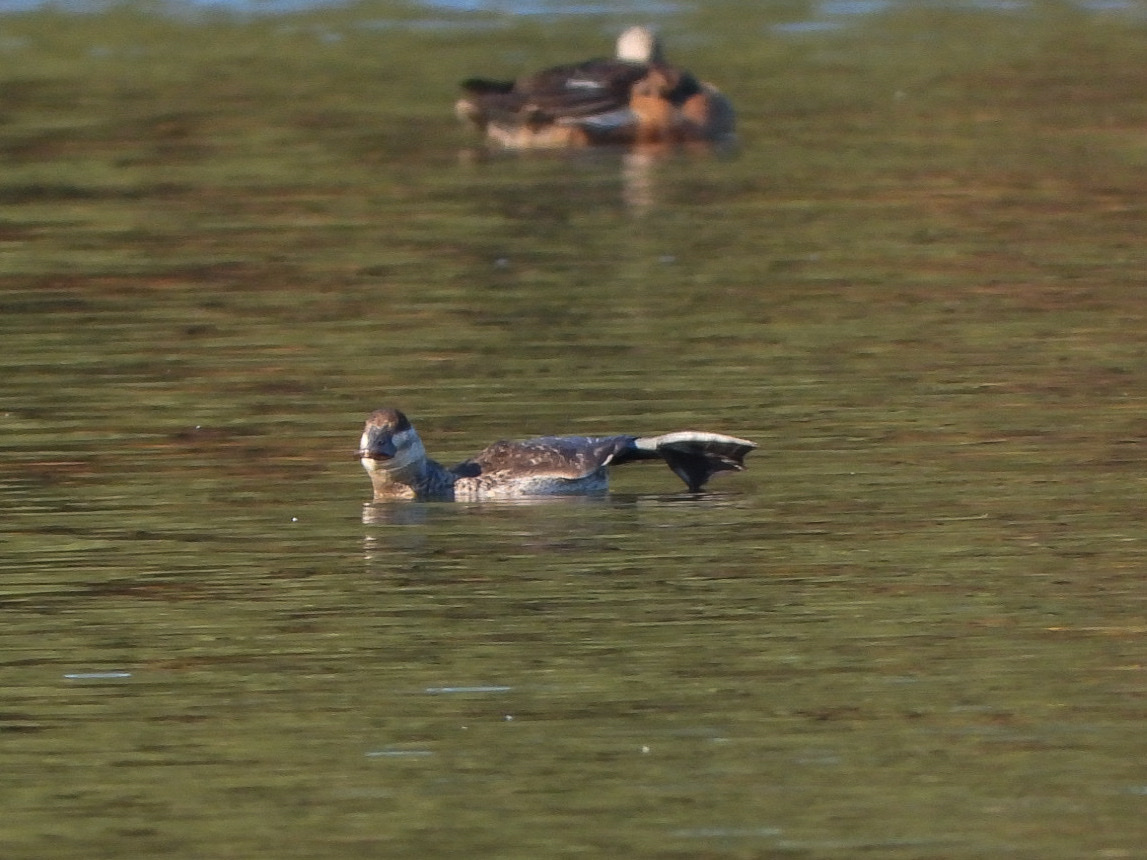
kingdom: Animalia
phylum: Chordata
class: Aves
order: Anseriformes
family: Anatidae
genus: Oxyura
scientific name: Oxyura jamaicensis
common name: Ruddy duck
